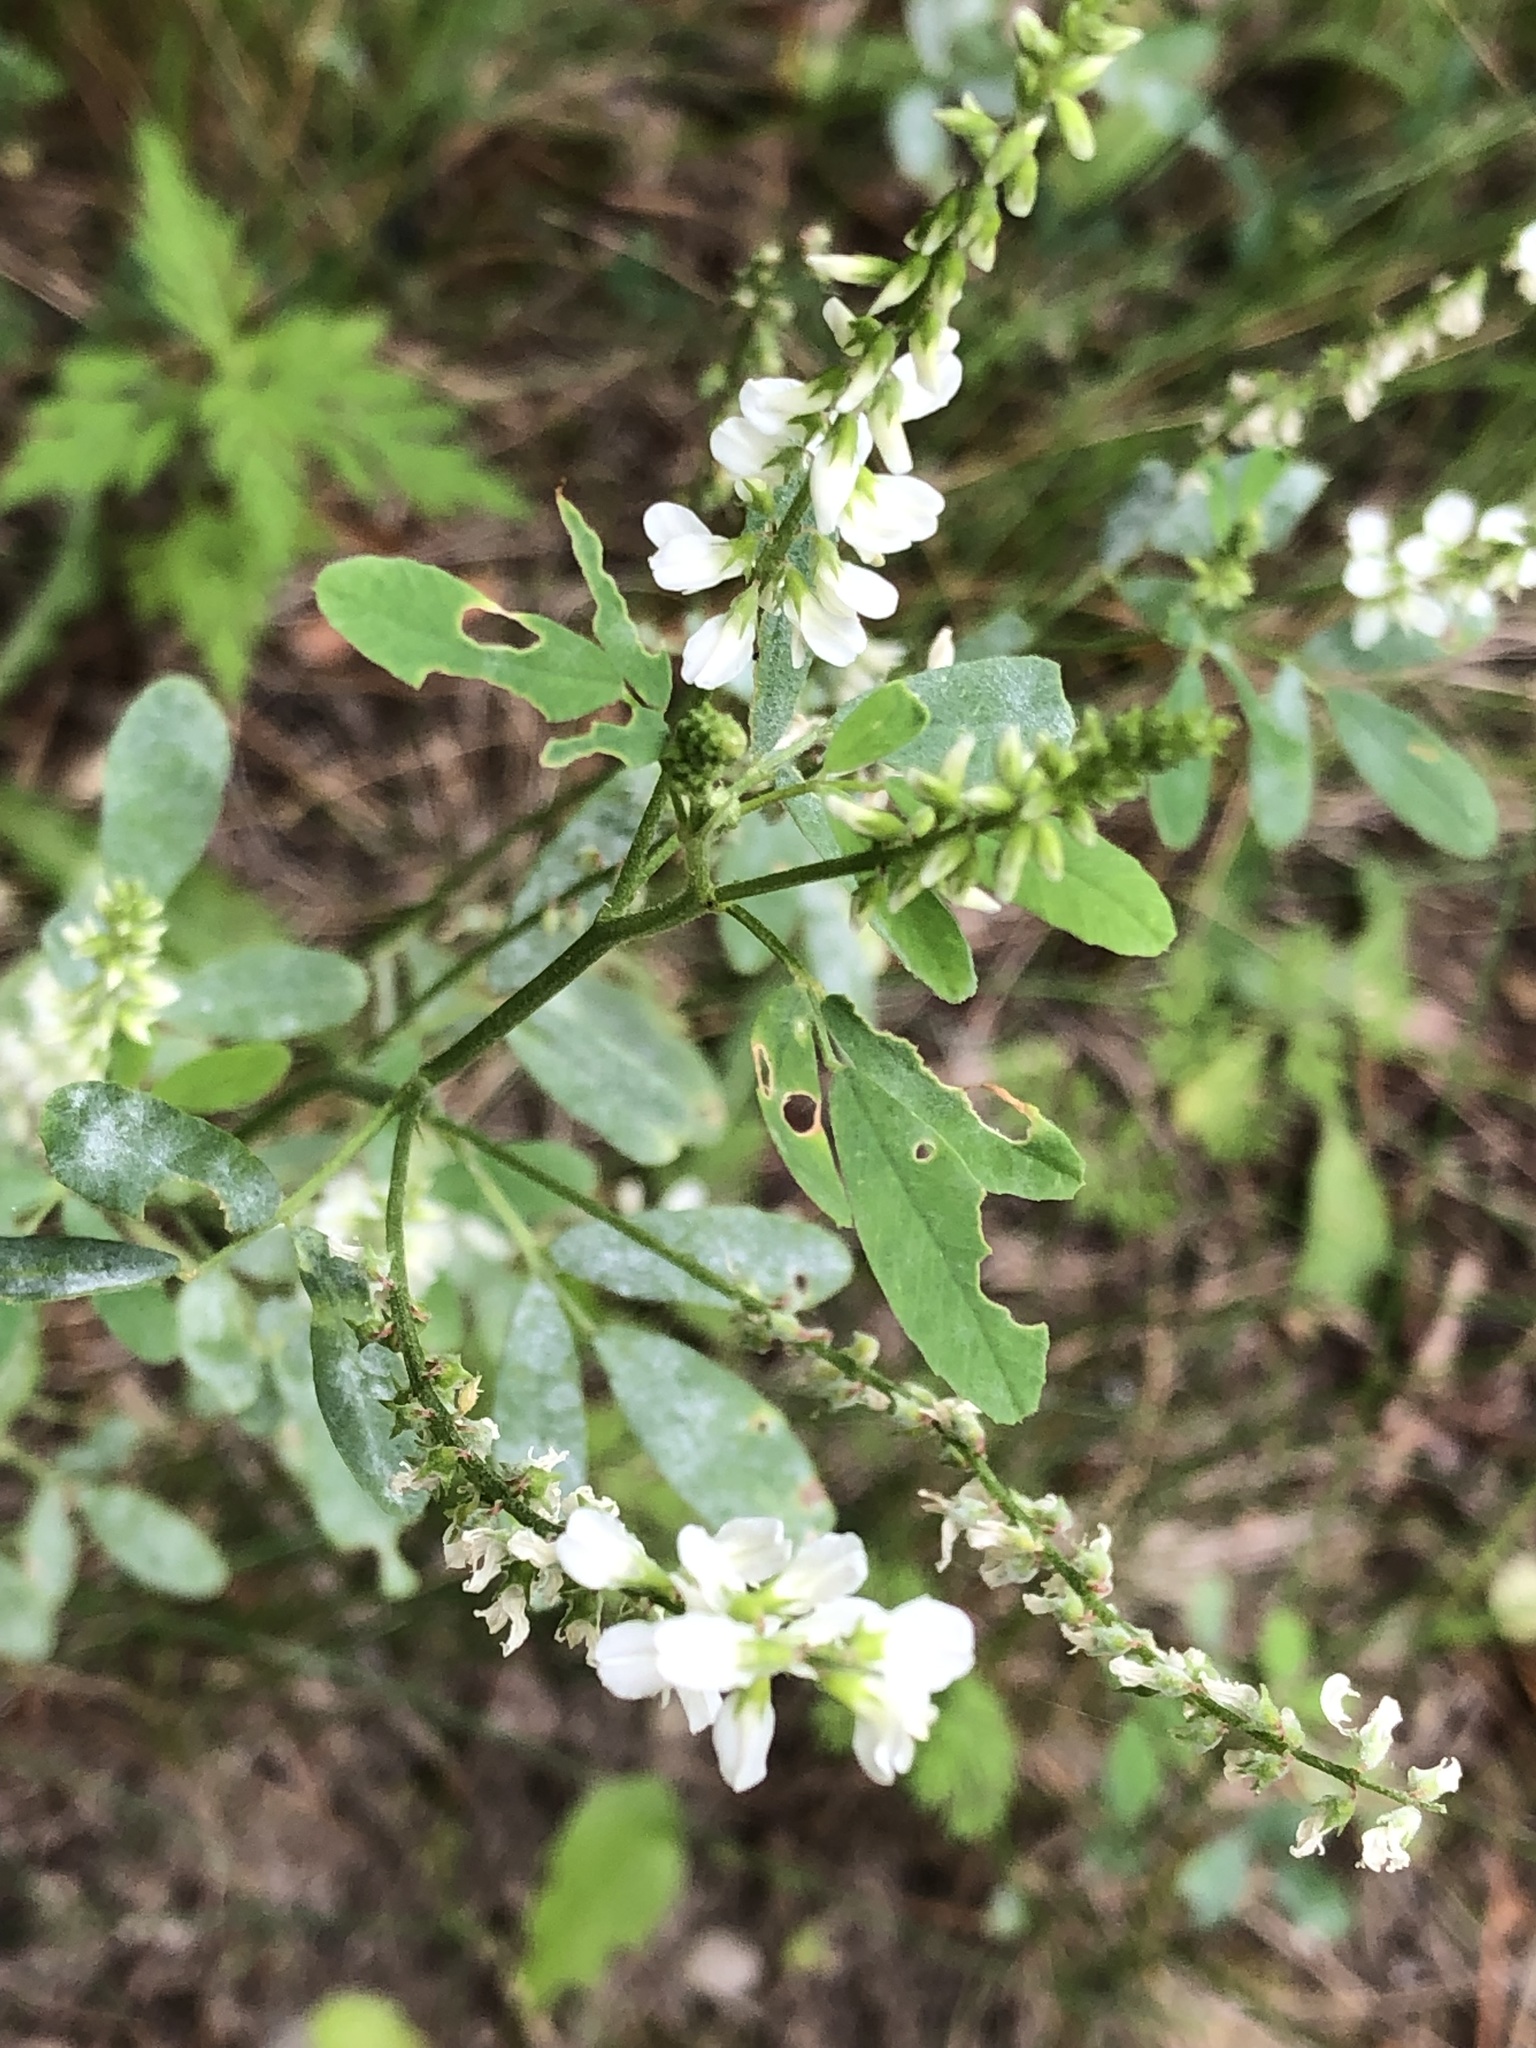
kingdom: Plantae
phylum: Tracheophyta
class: Magnoliopsida
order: Fabales
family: Fabaceae
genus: Melilotus
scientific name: Melilotus albus
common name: White melilot
